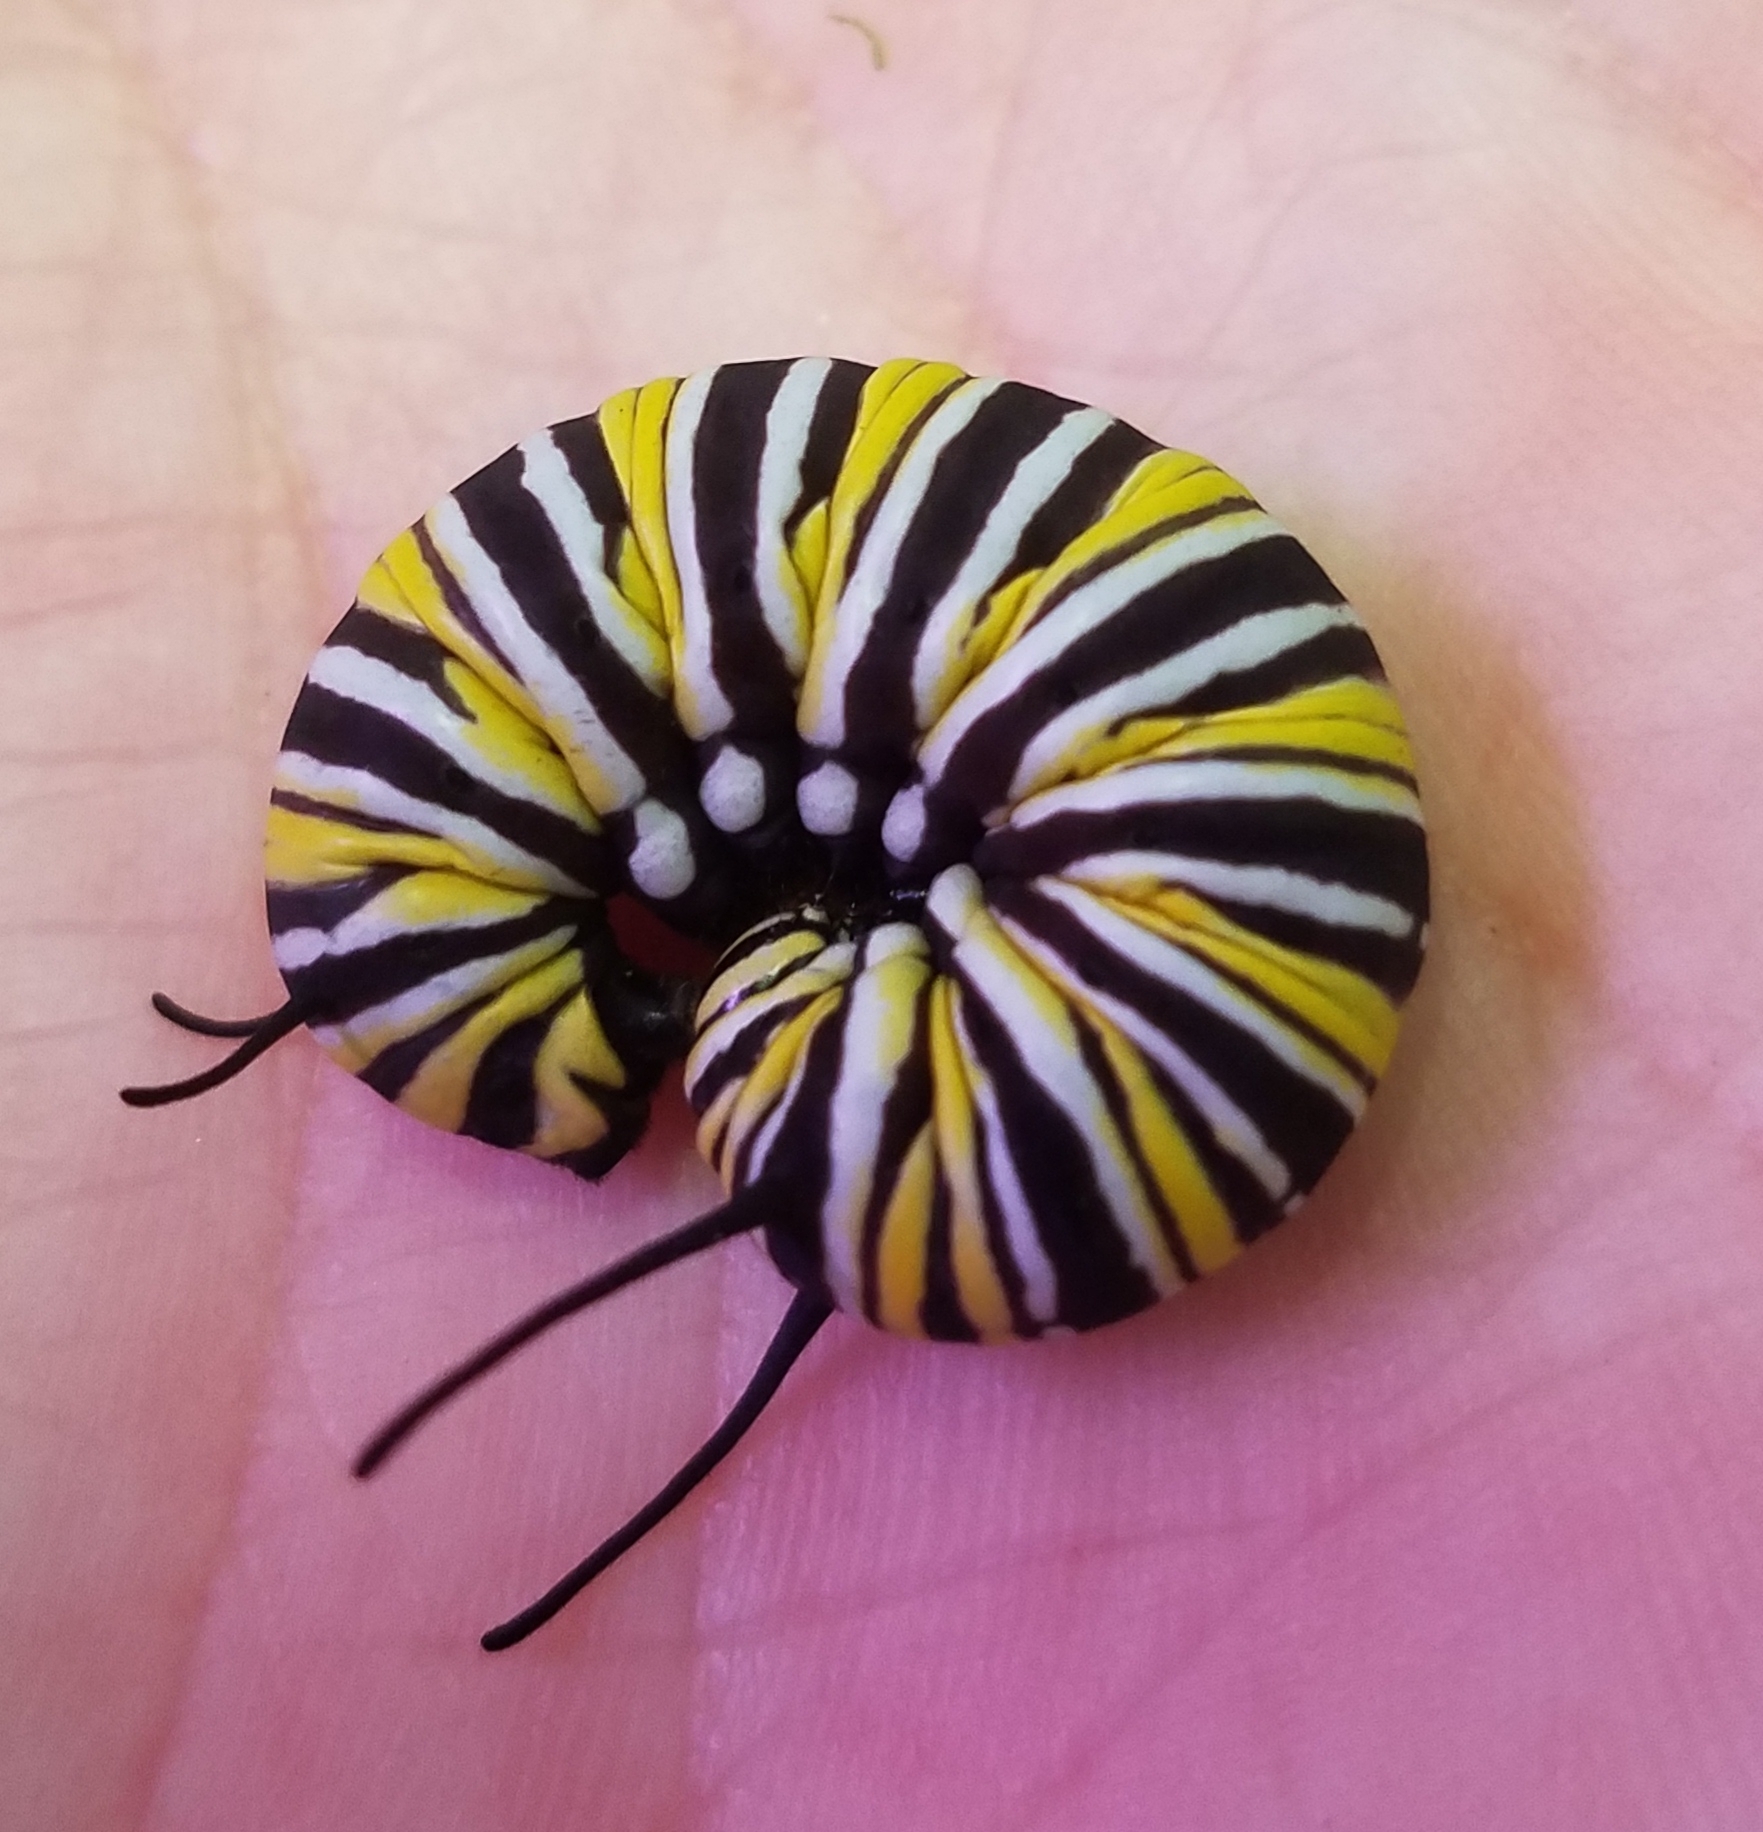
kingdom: Animalia
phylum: Arthropoda
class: Insecta
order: Lepidoptera
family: Nymphalidae
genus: Danaus
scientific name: Danaus plexippus
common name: Monarch
